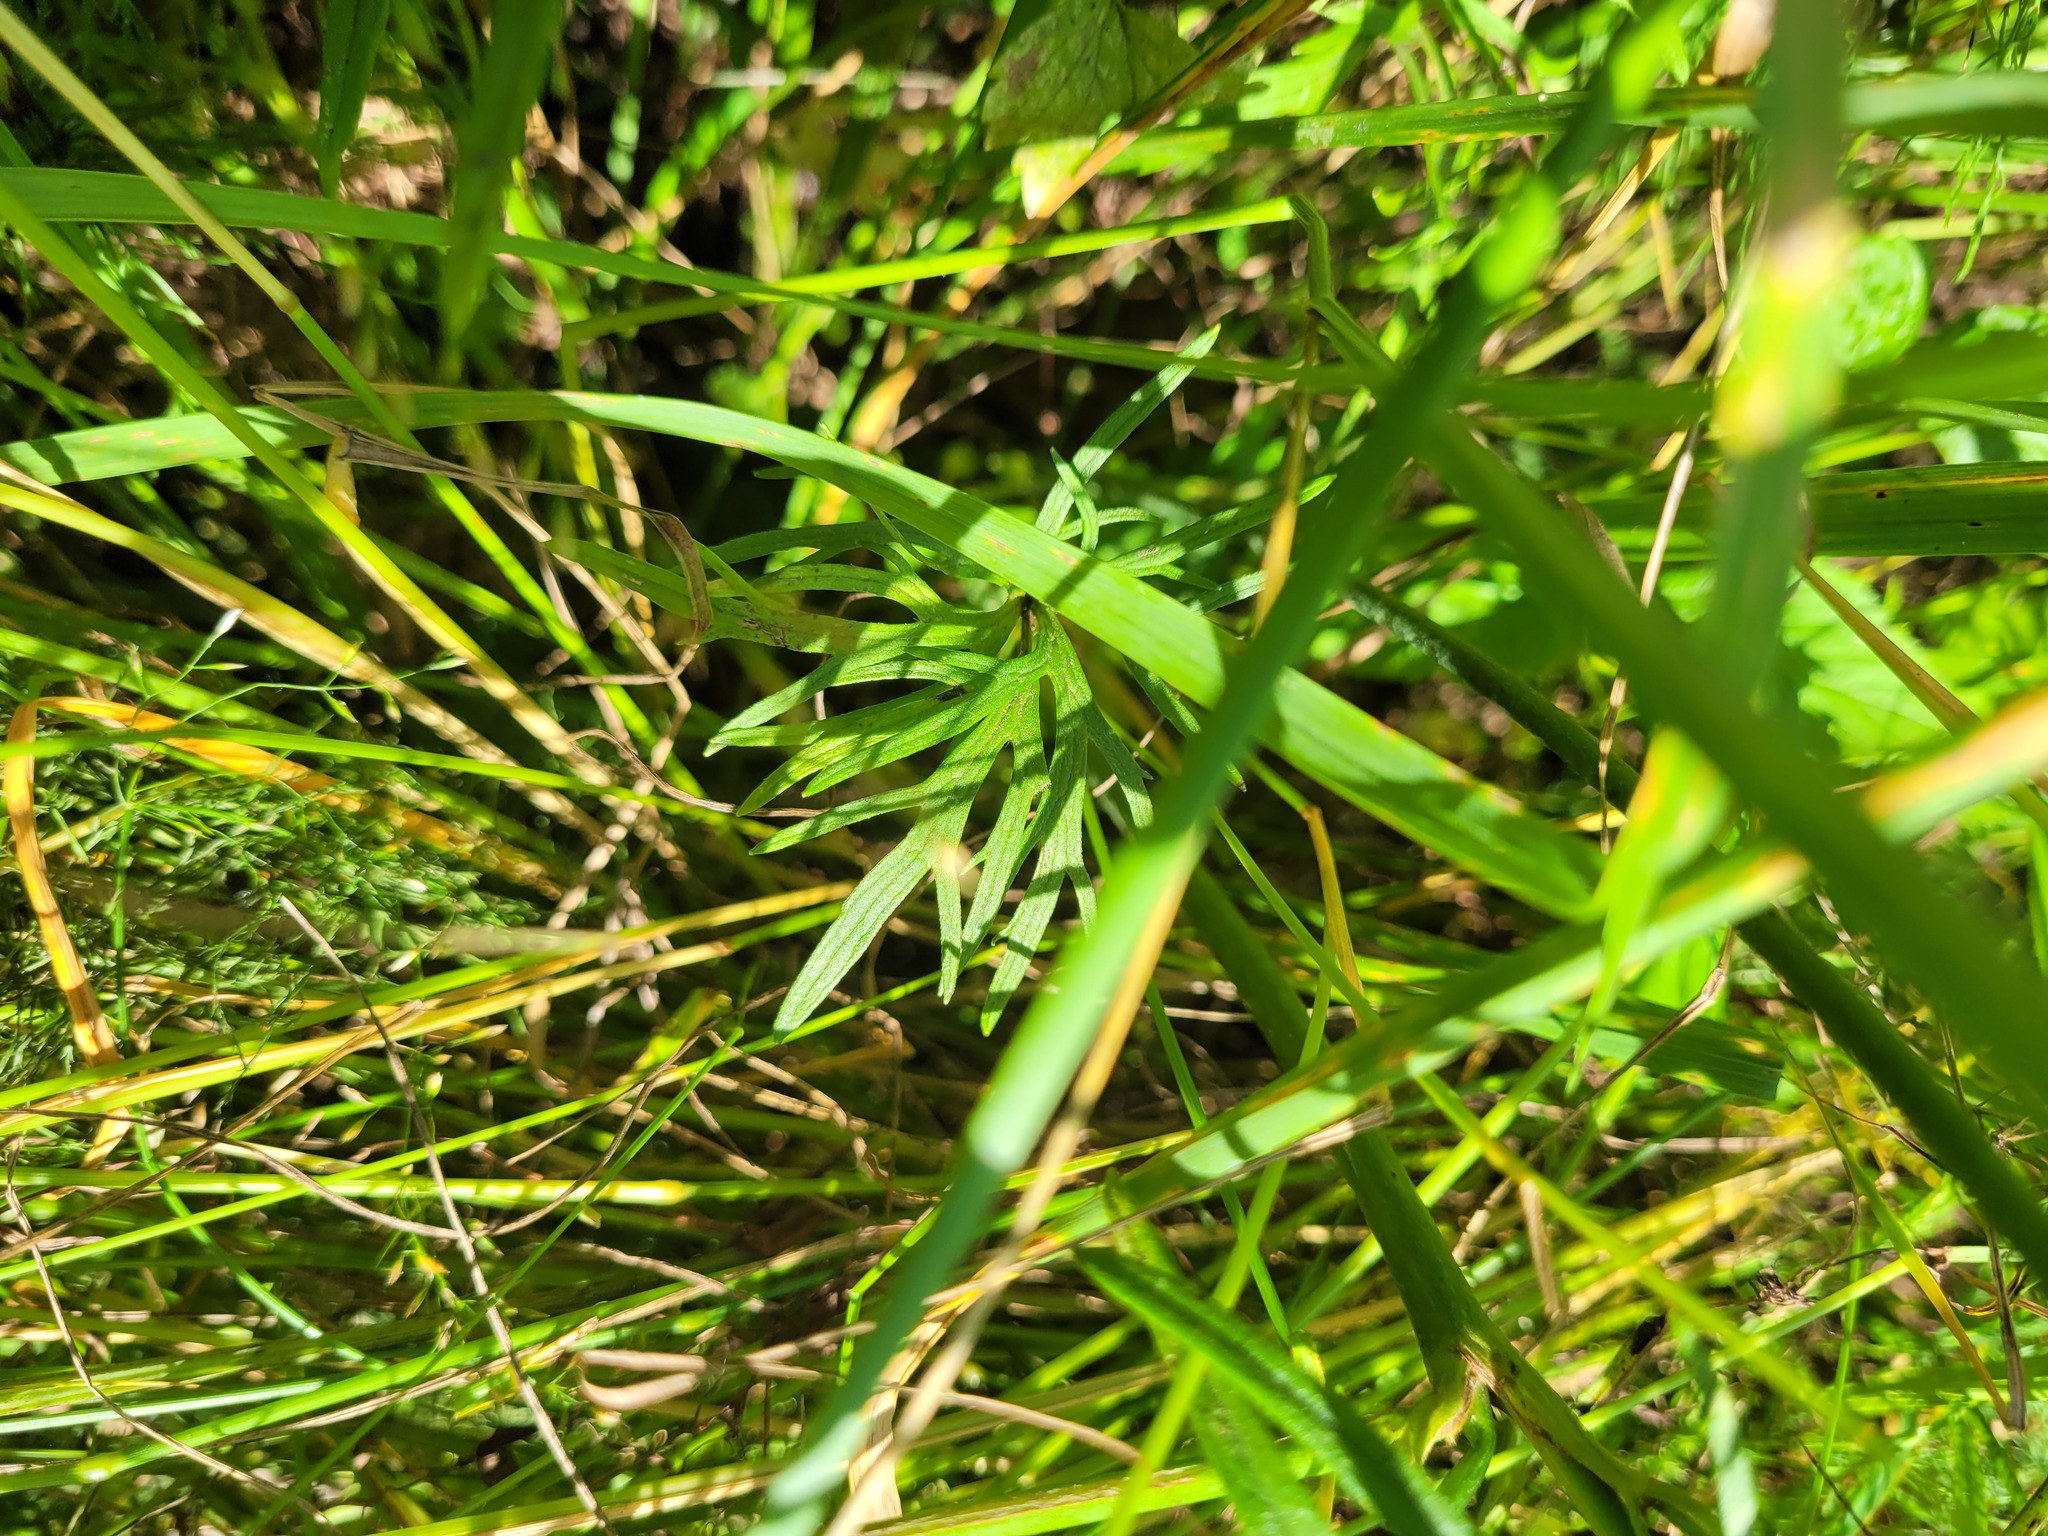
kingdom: Plantae
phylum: Tracheophyta
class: Magnoliopsida
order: Ranunculales
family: Ranunculaceae
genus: Ranunculus
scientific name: Ranunculus acris
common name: Meadow buttercup
